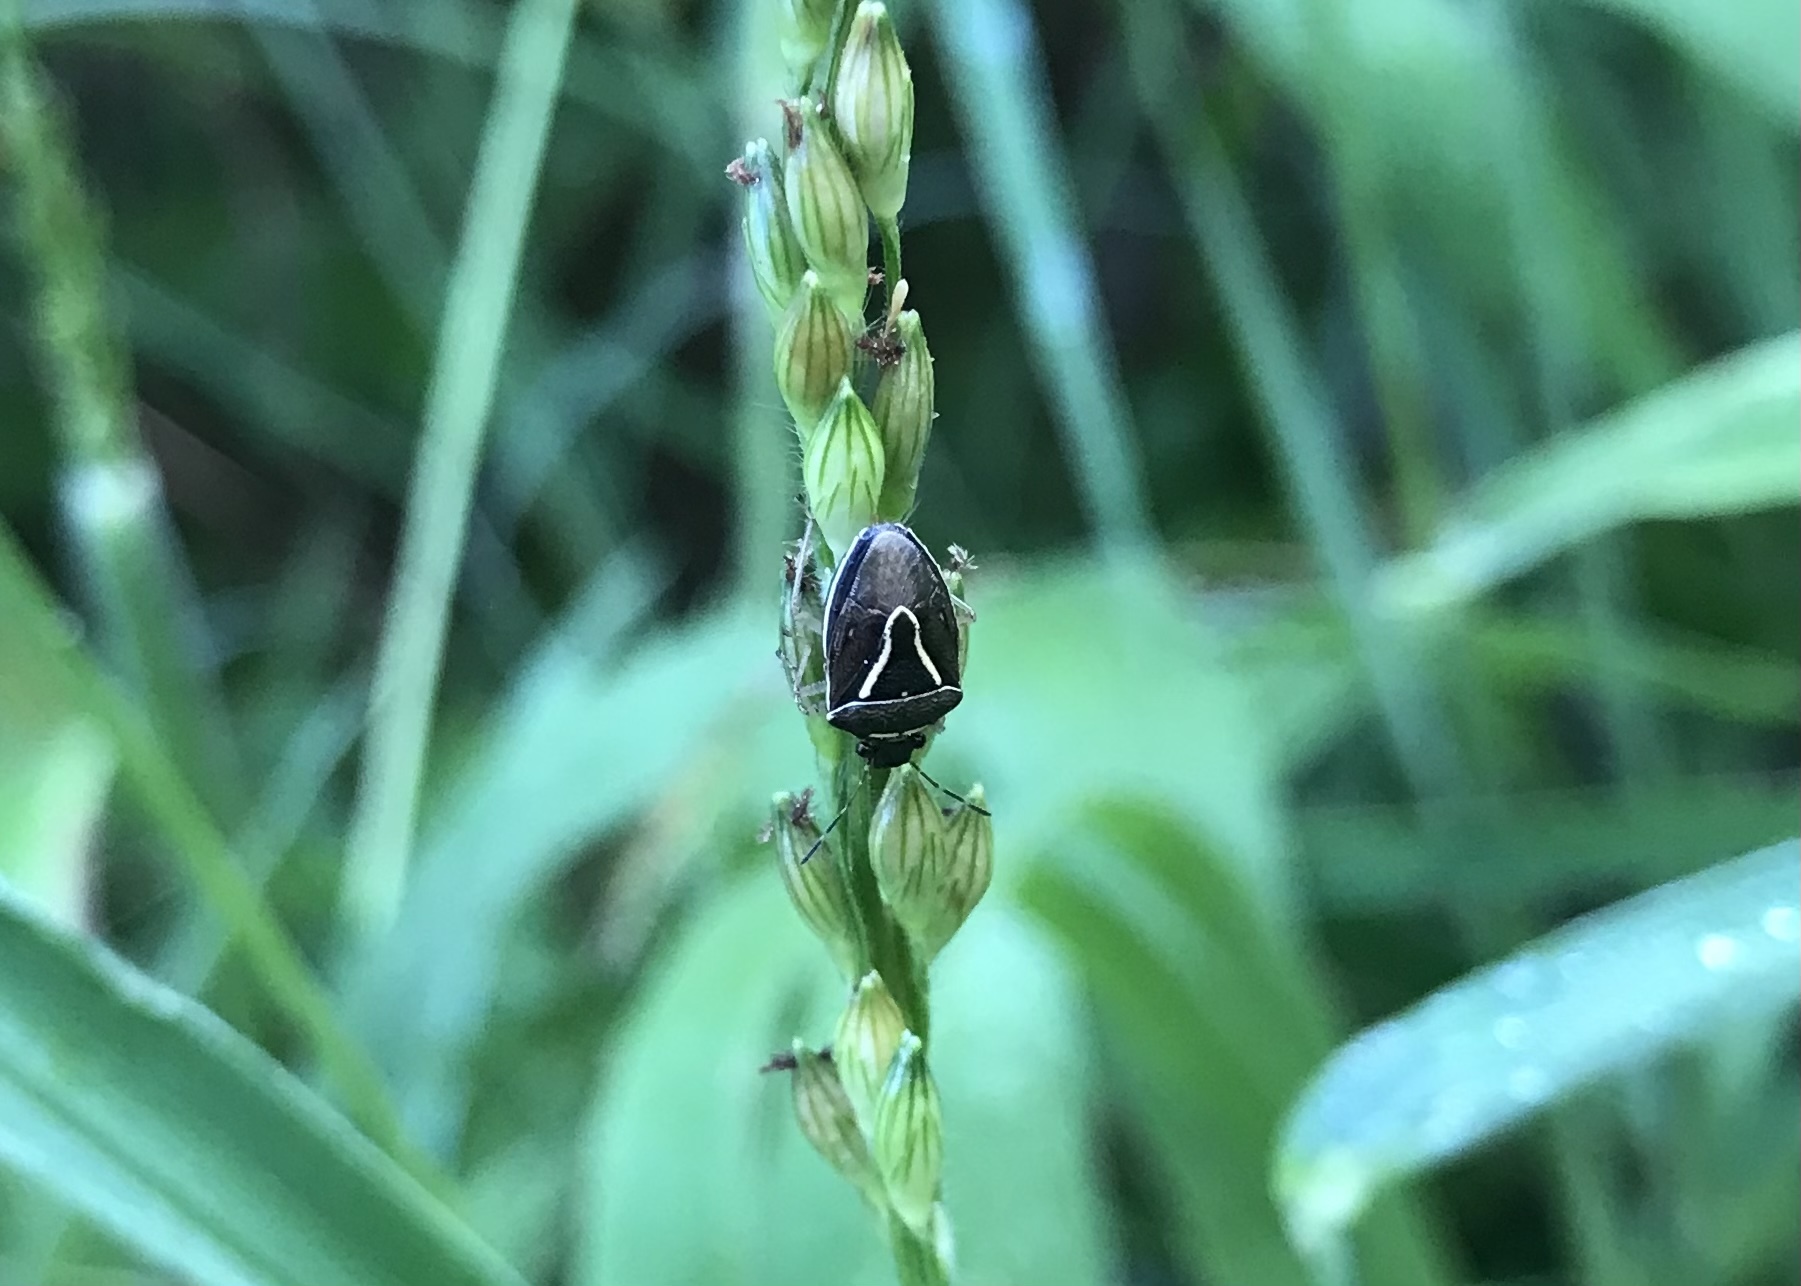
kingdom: Animalia
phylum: Arthropoda
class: Insecta
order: Hemiptera
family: Pentatomidae
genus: Mormidea
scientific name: Mormidea lugens
